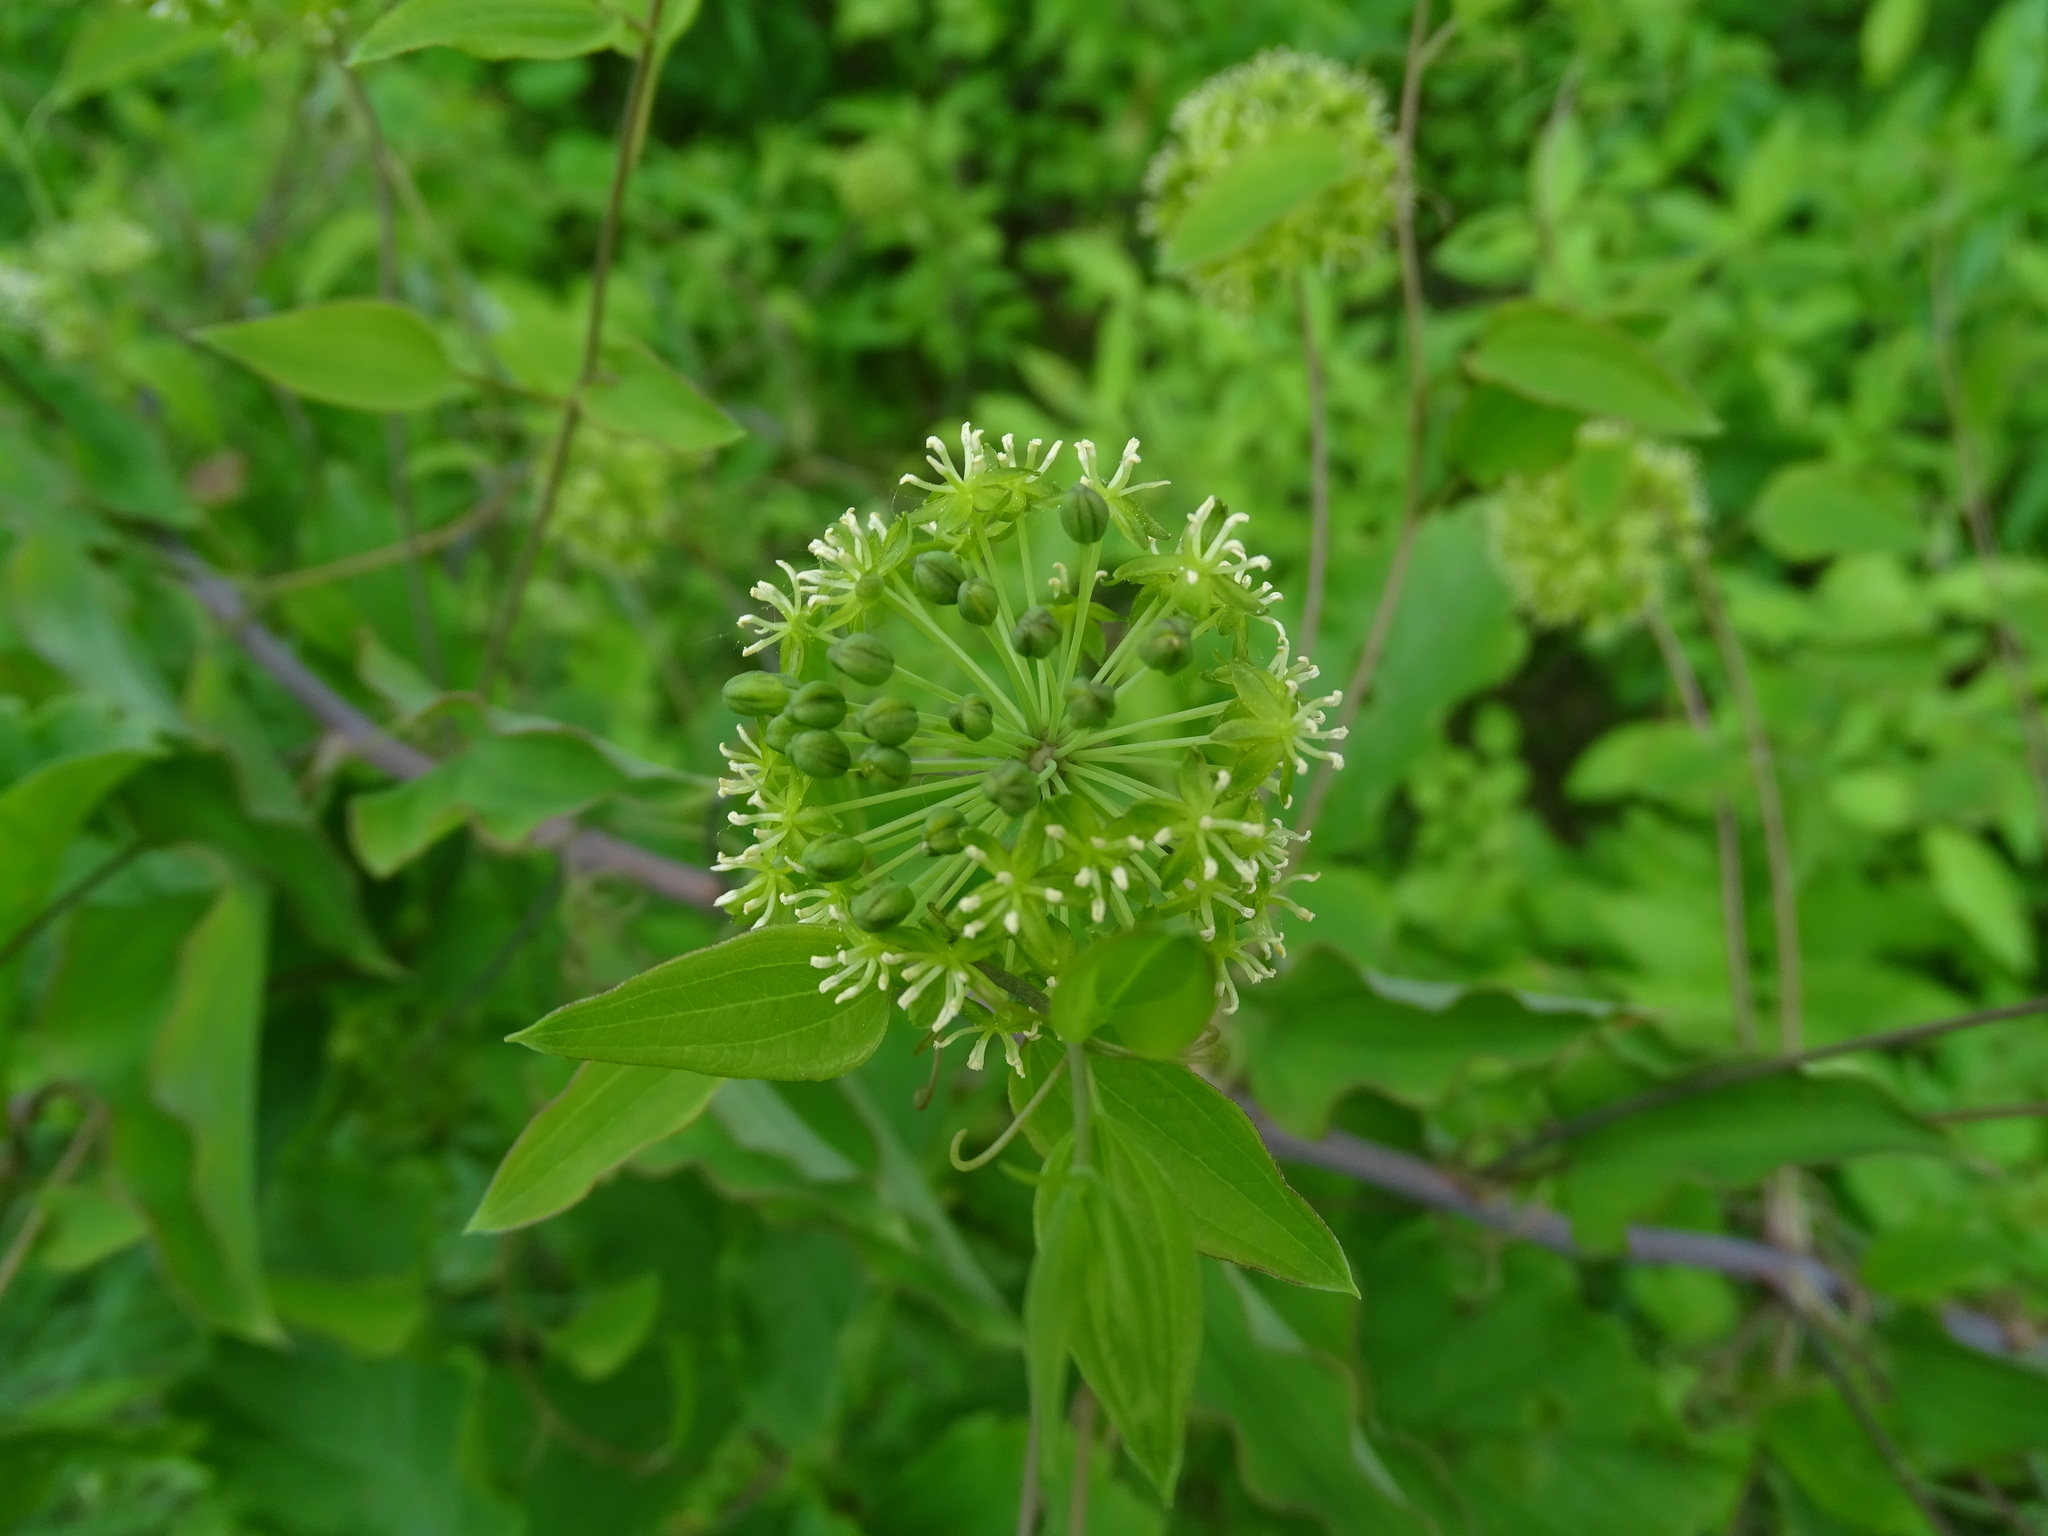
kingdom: Plantae
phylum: Tracheophyta
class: Liliopsida
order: Liliales
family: Smilacaceae
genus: Smilax
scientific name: Smilax herbacea
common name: Jacob's-ladder
